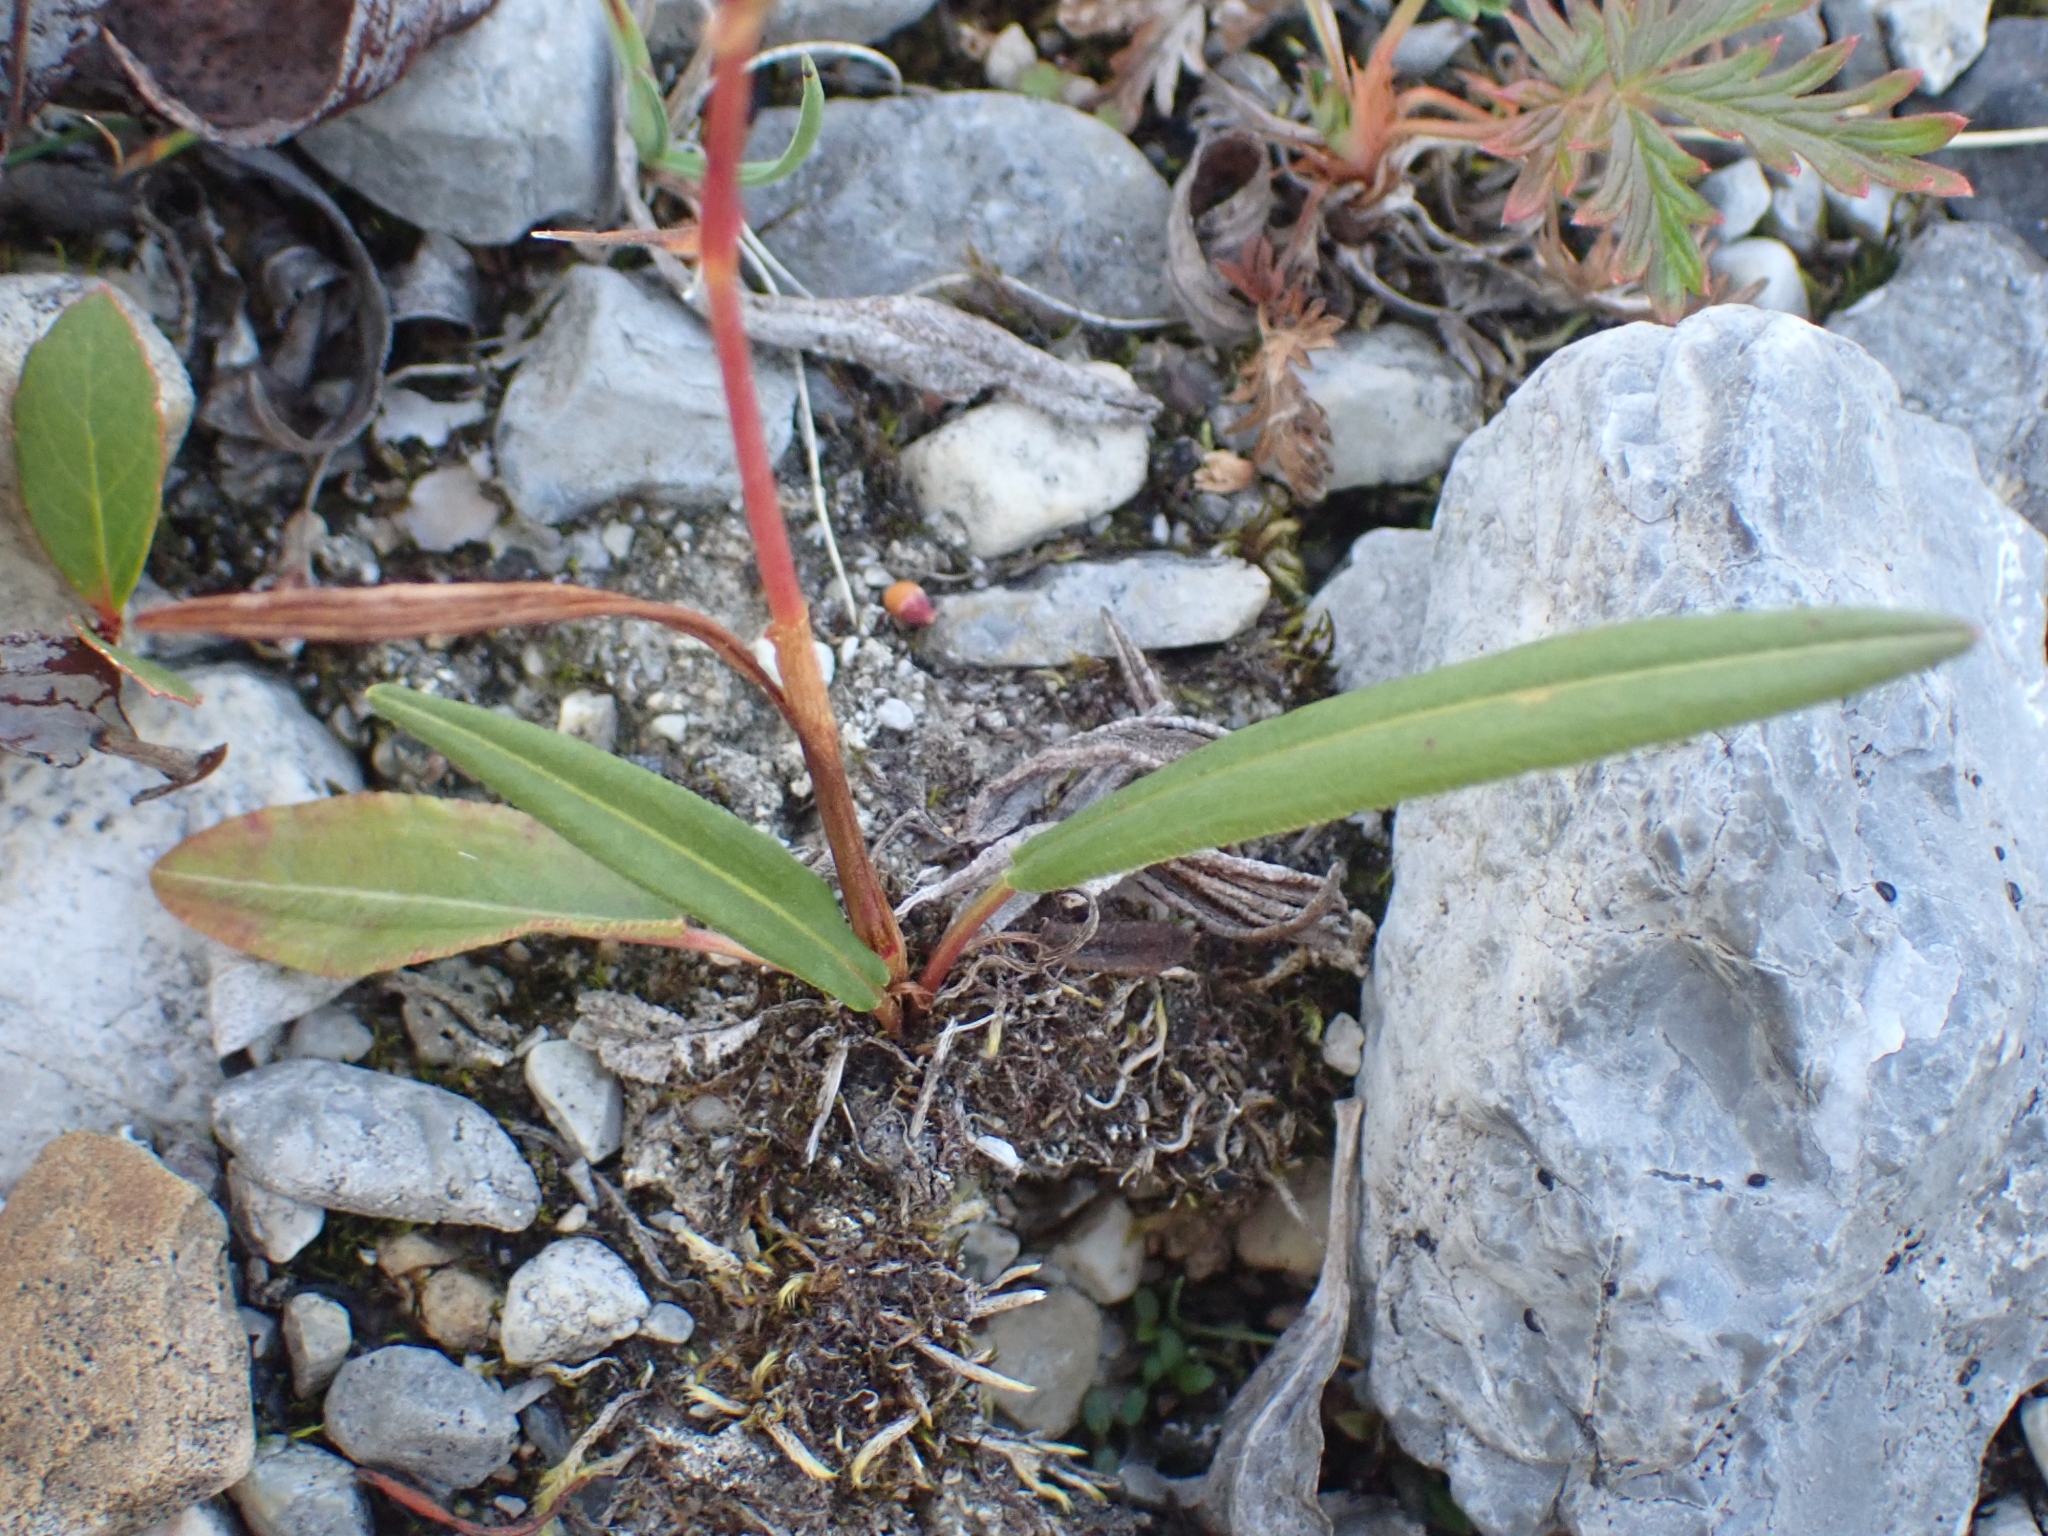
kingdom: Plantae
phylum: Tracheophyta
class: Magnoliopsida
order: Caryophyllales
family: Polygonaceae
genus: Bistorta
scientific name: Bistorta vivipara
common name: Alpine bistort
